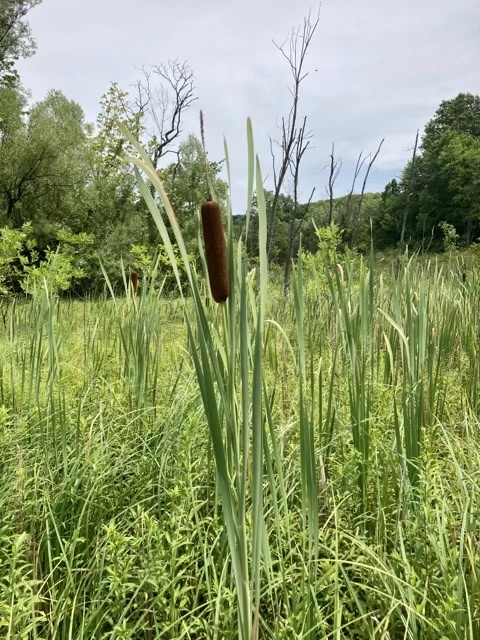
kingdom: Plantae
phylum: Tracheophyta
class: Liliopsida
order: Poales
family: Typhaceae
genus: Typha
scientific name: Typha latifolia
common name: Broadleaf cattail
